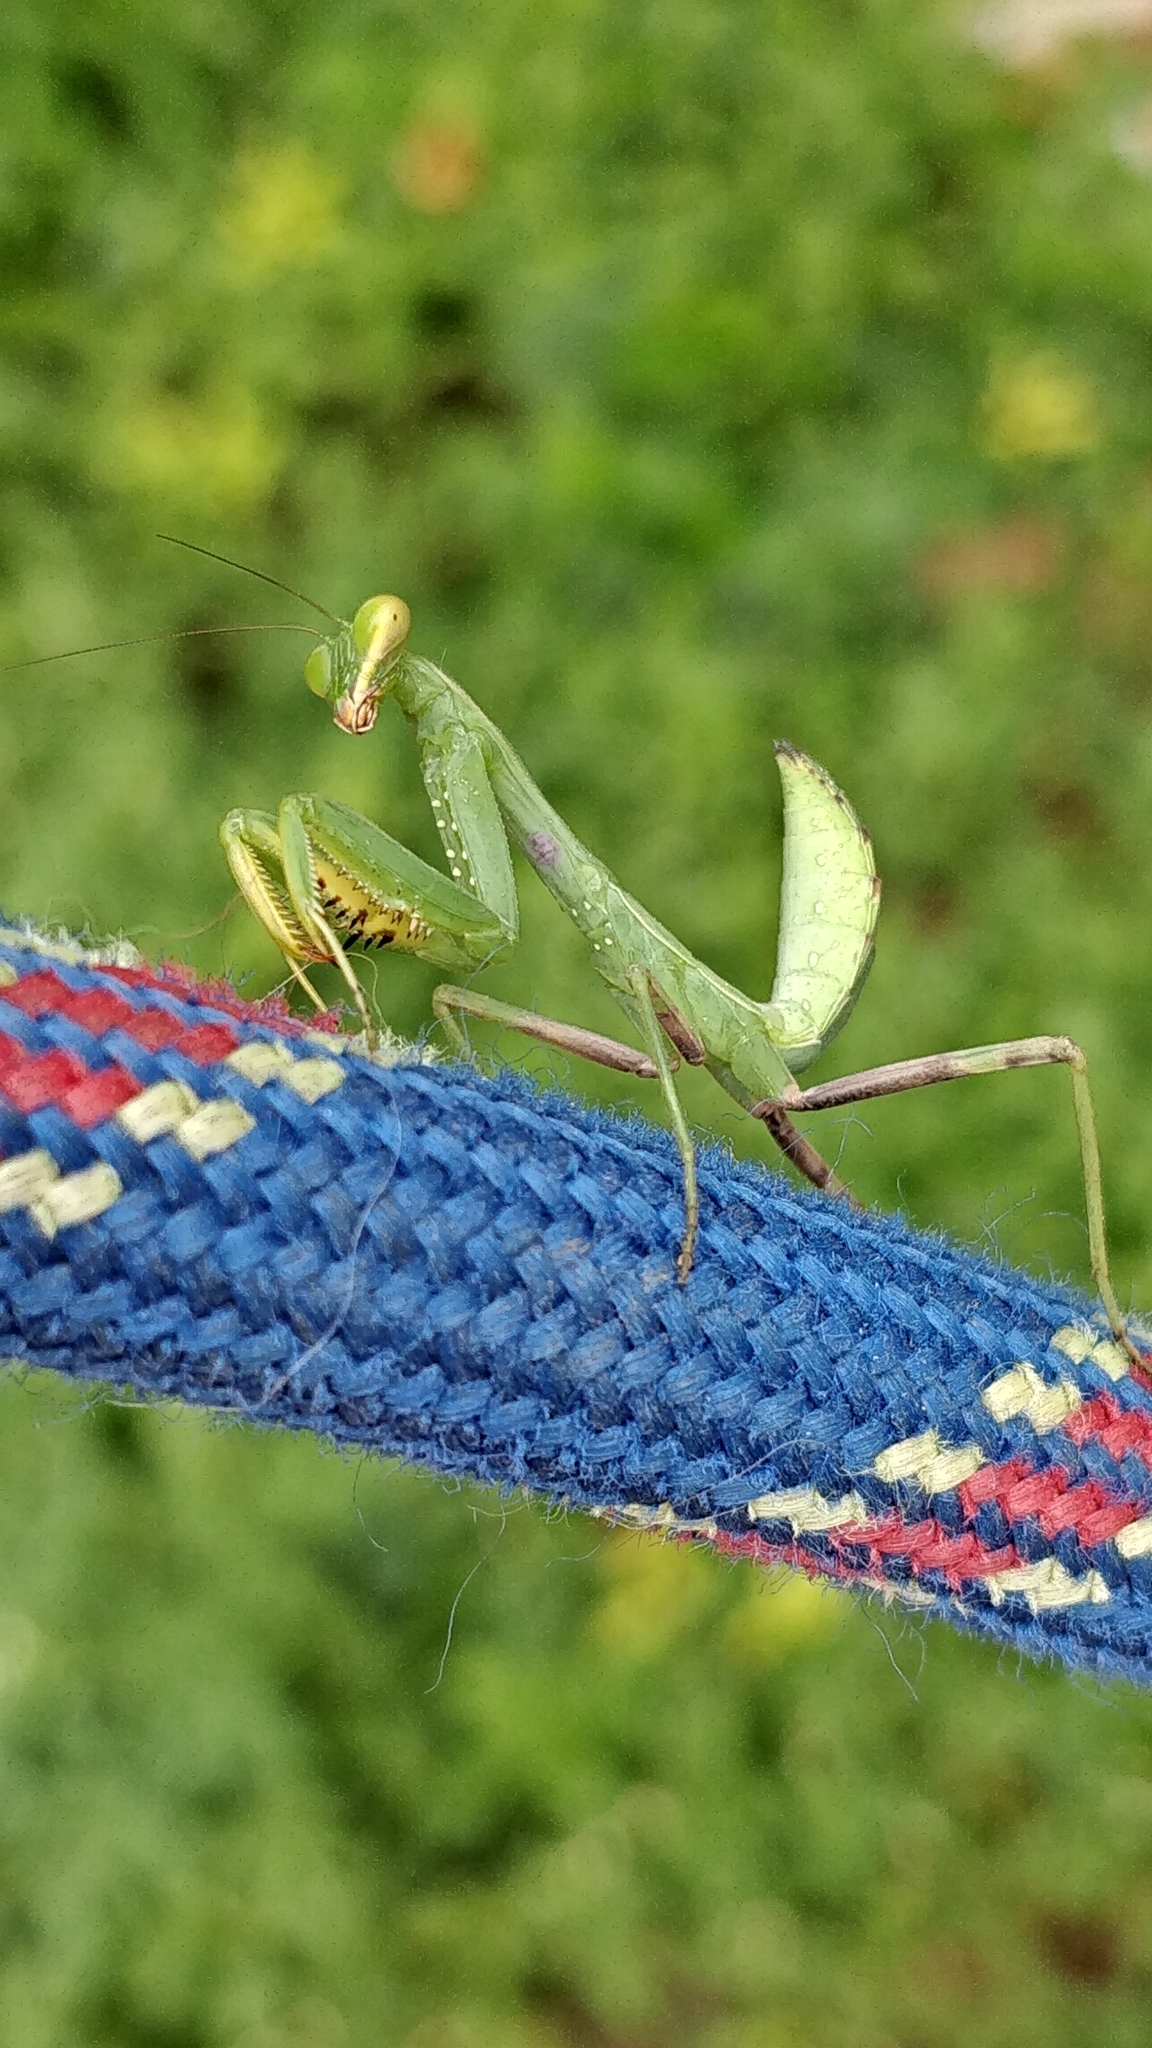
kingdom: Animalia
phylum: Arthropoda
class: Insecta
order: Mantodea
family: Mantidae
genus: Hierodula
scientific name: Hierodula tenuidentata
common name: Giant asian mantis
